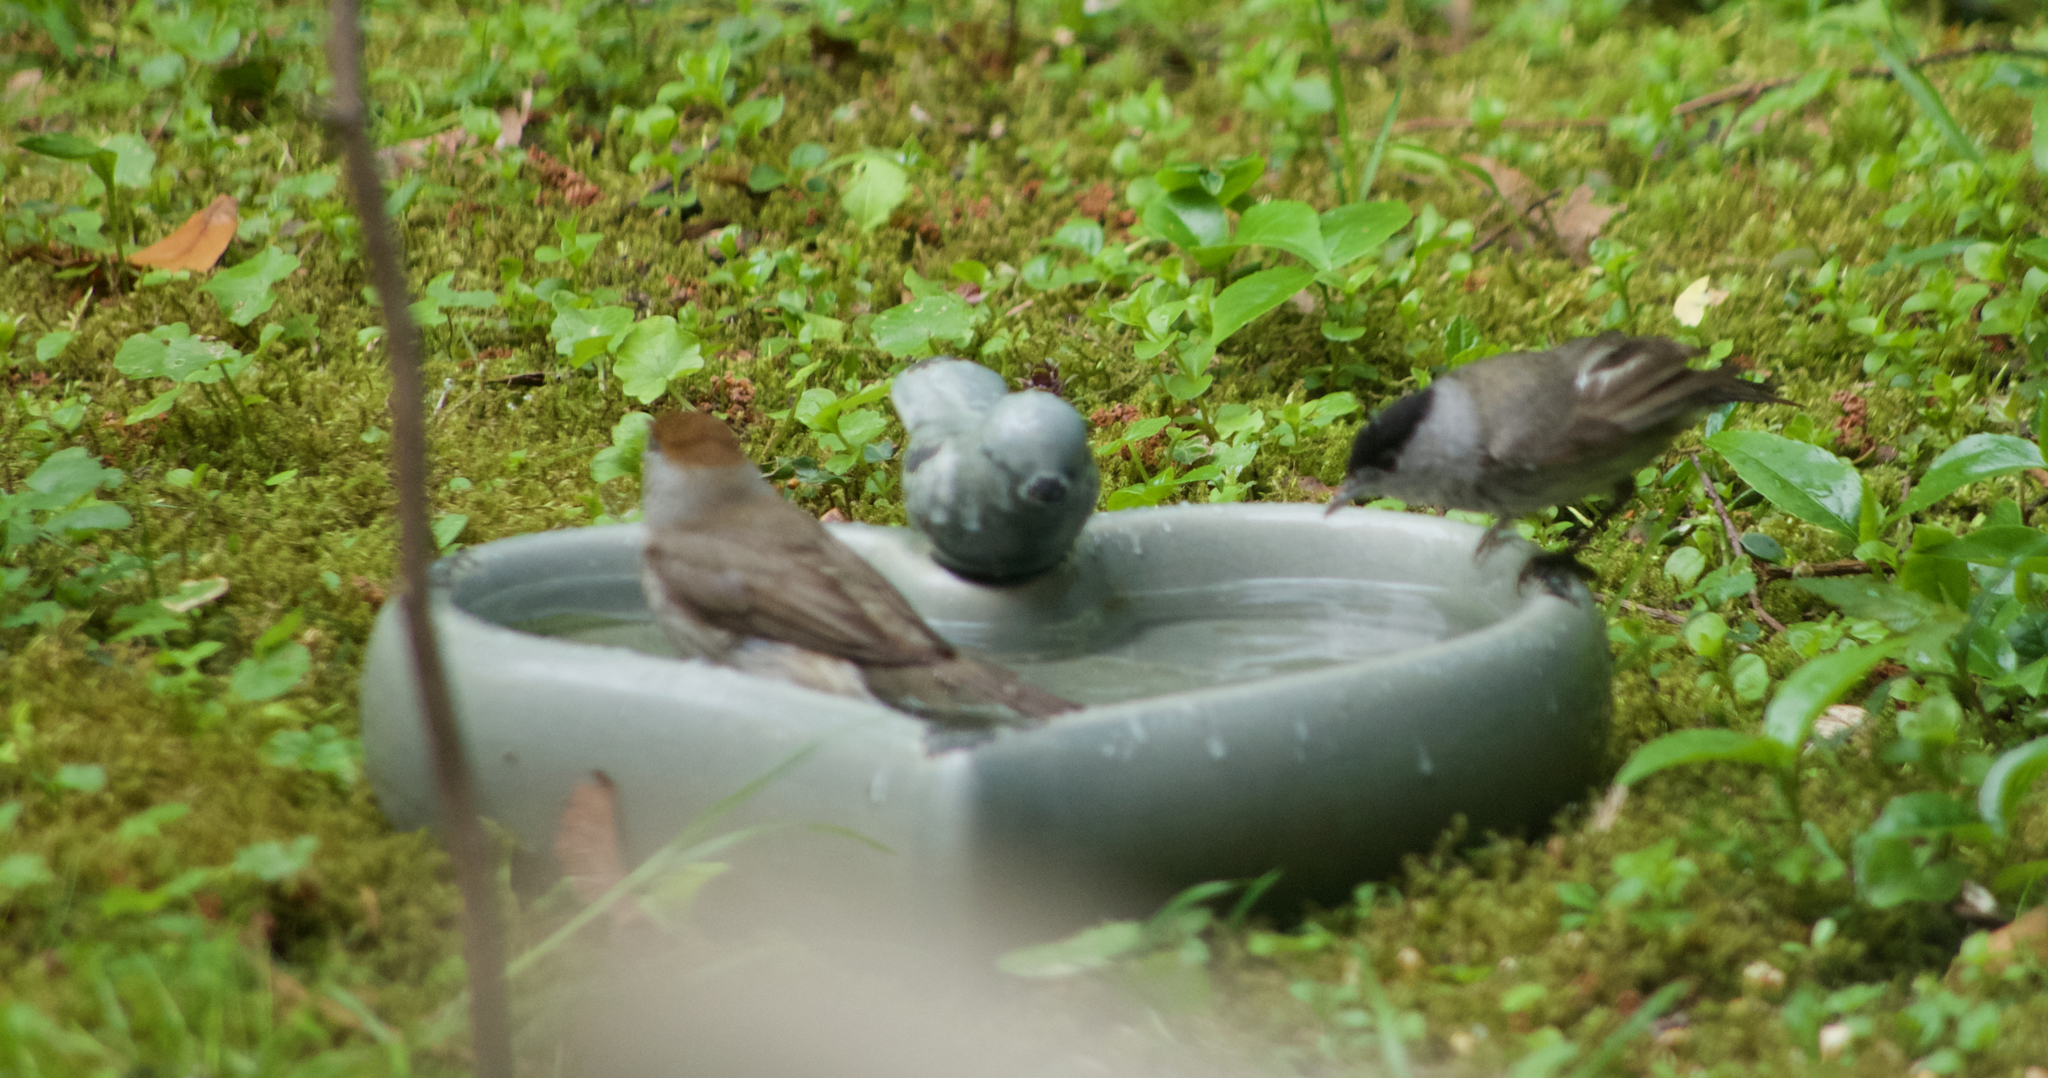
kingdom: Animalia
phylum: Chordata
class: Aves
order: Passeriformes
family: Sylviidae
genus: Sylvia
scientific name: Sylvia atricapilla
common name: Eurasian blackcap
